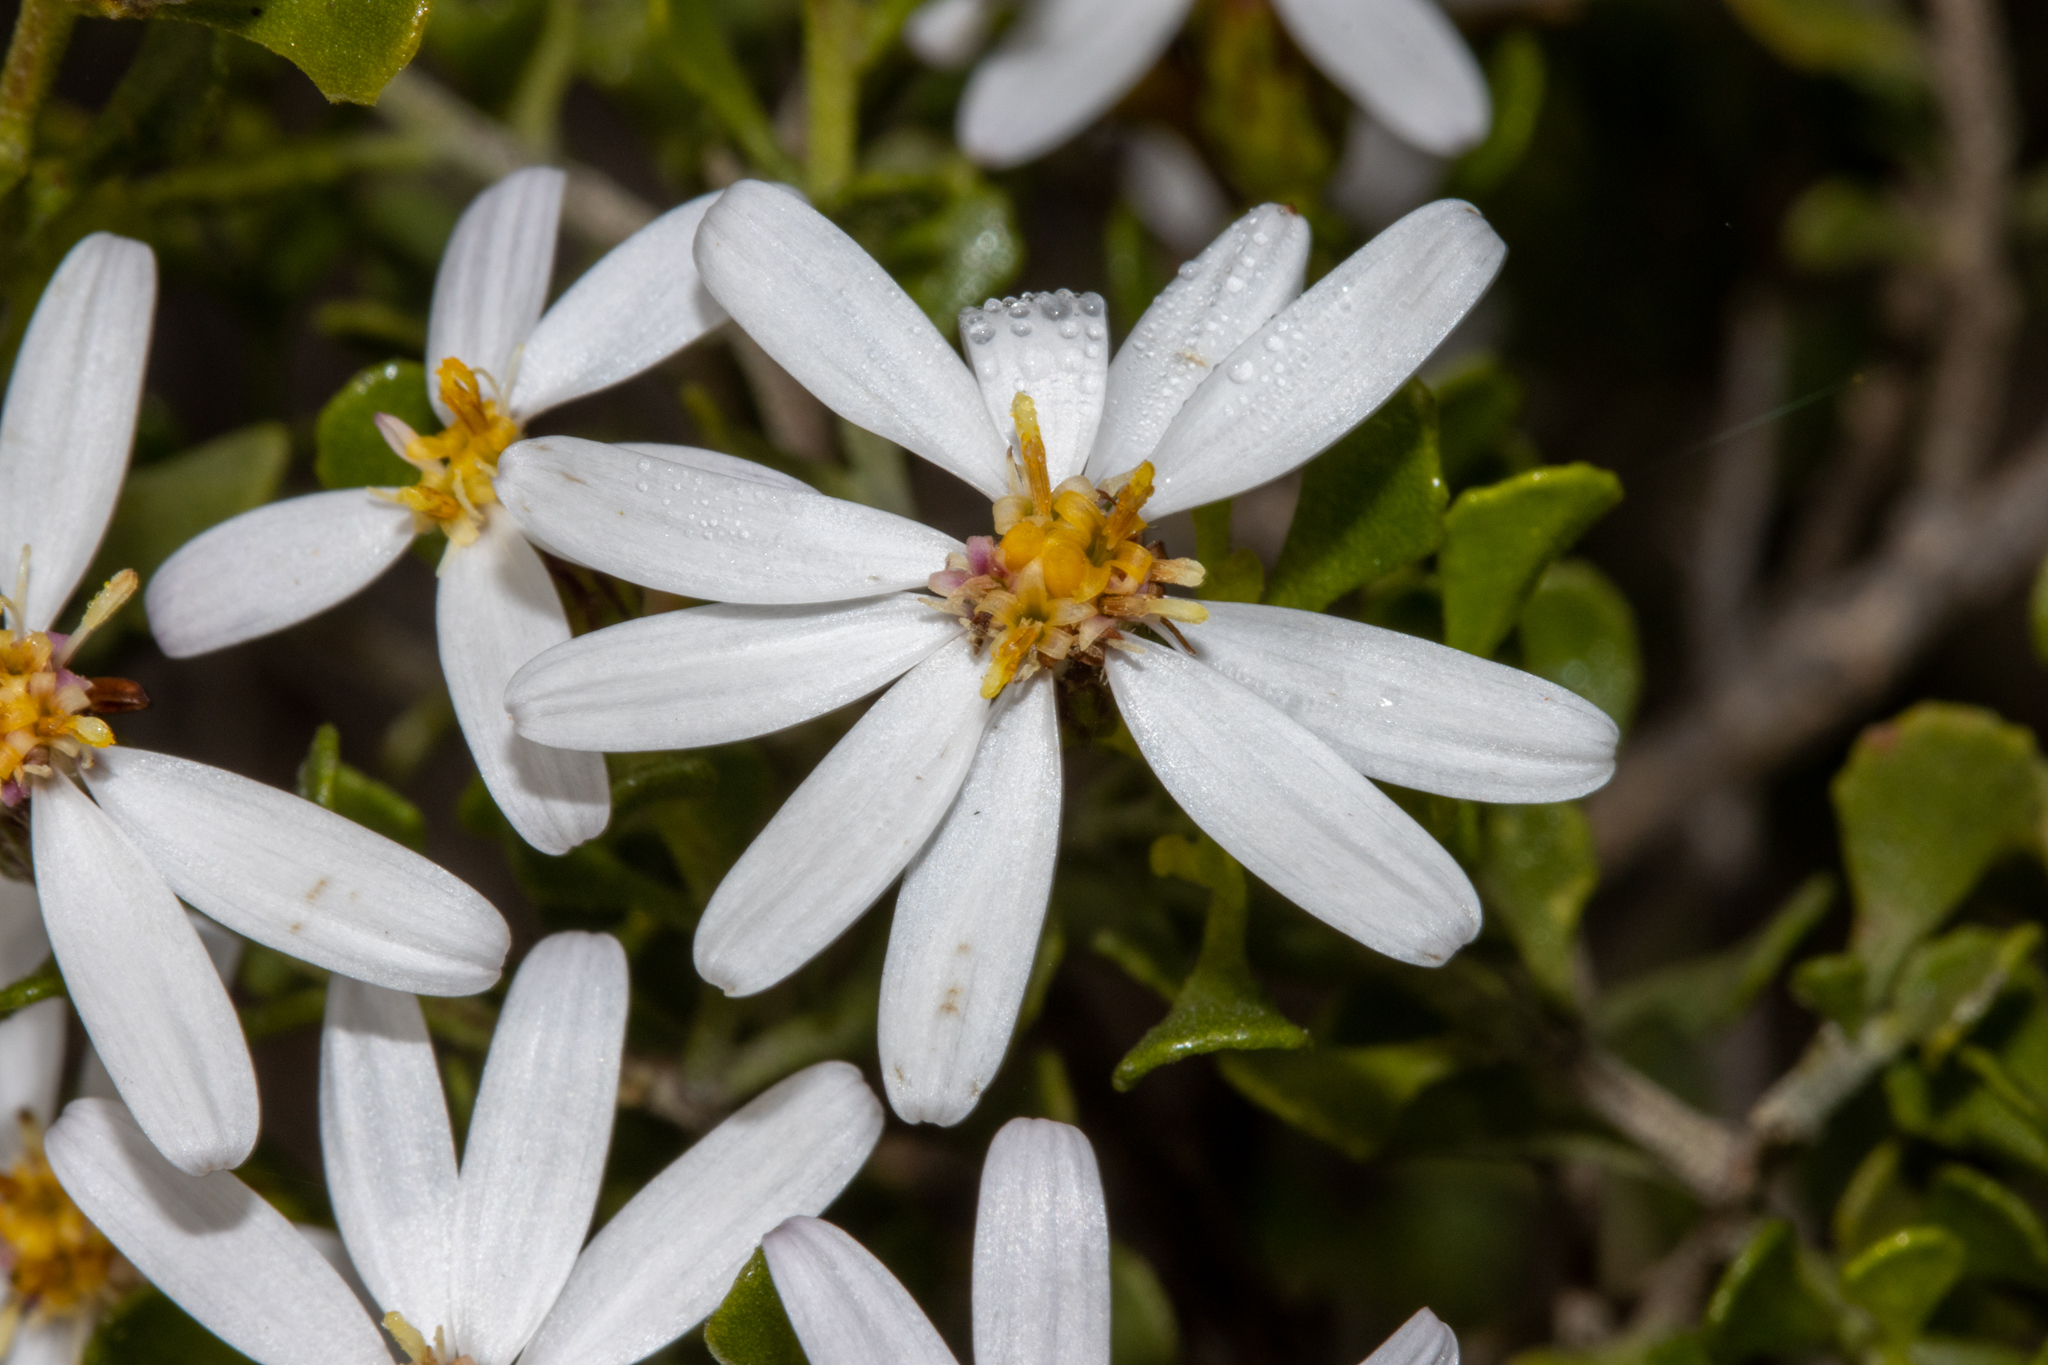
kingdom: Plantae
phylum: Tracheophyta
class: Magnoliopsida
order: Asterales
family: Asteraceae
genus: Walsholaria
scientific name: Walsholaria muelleri
